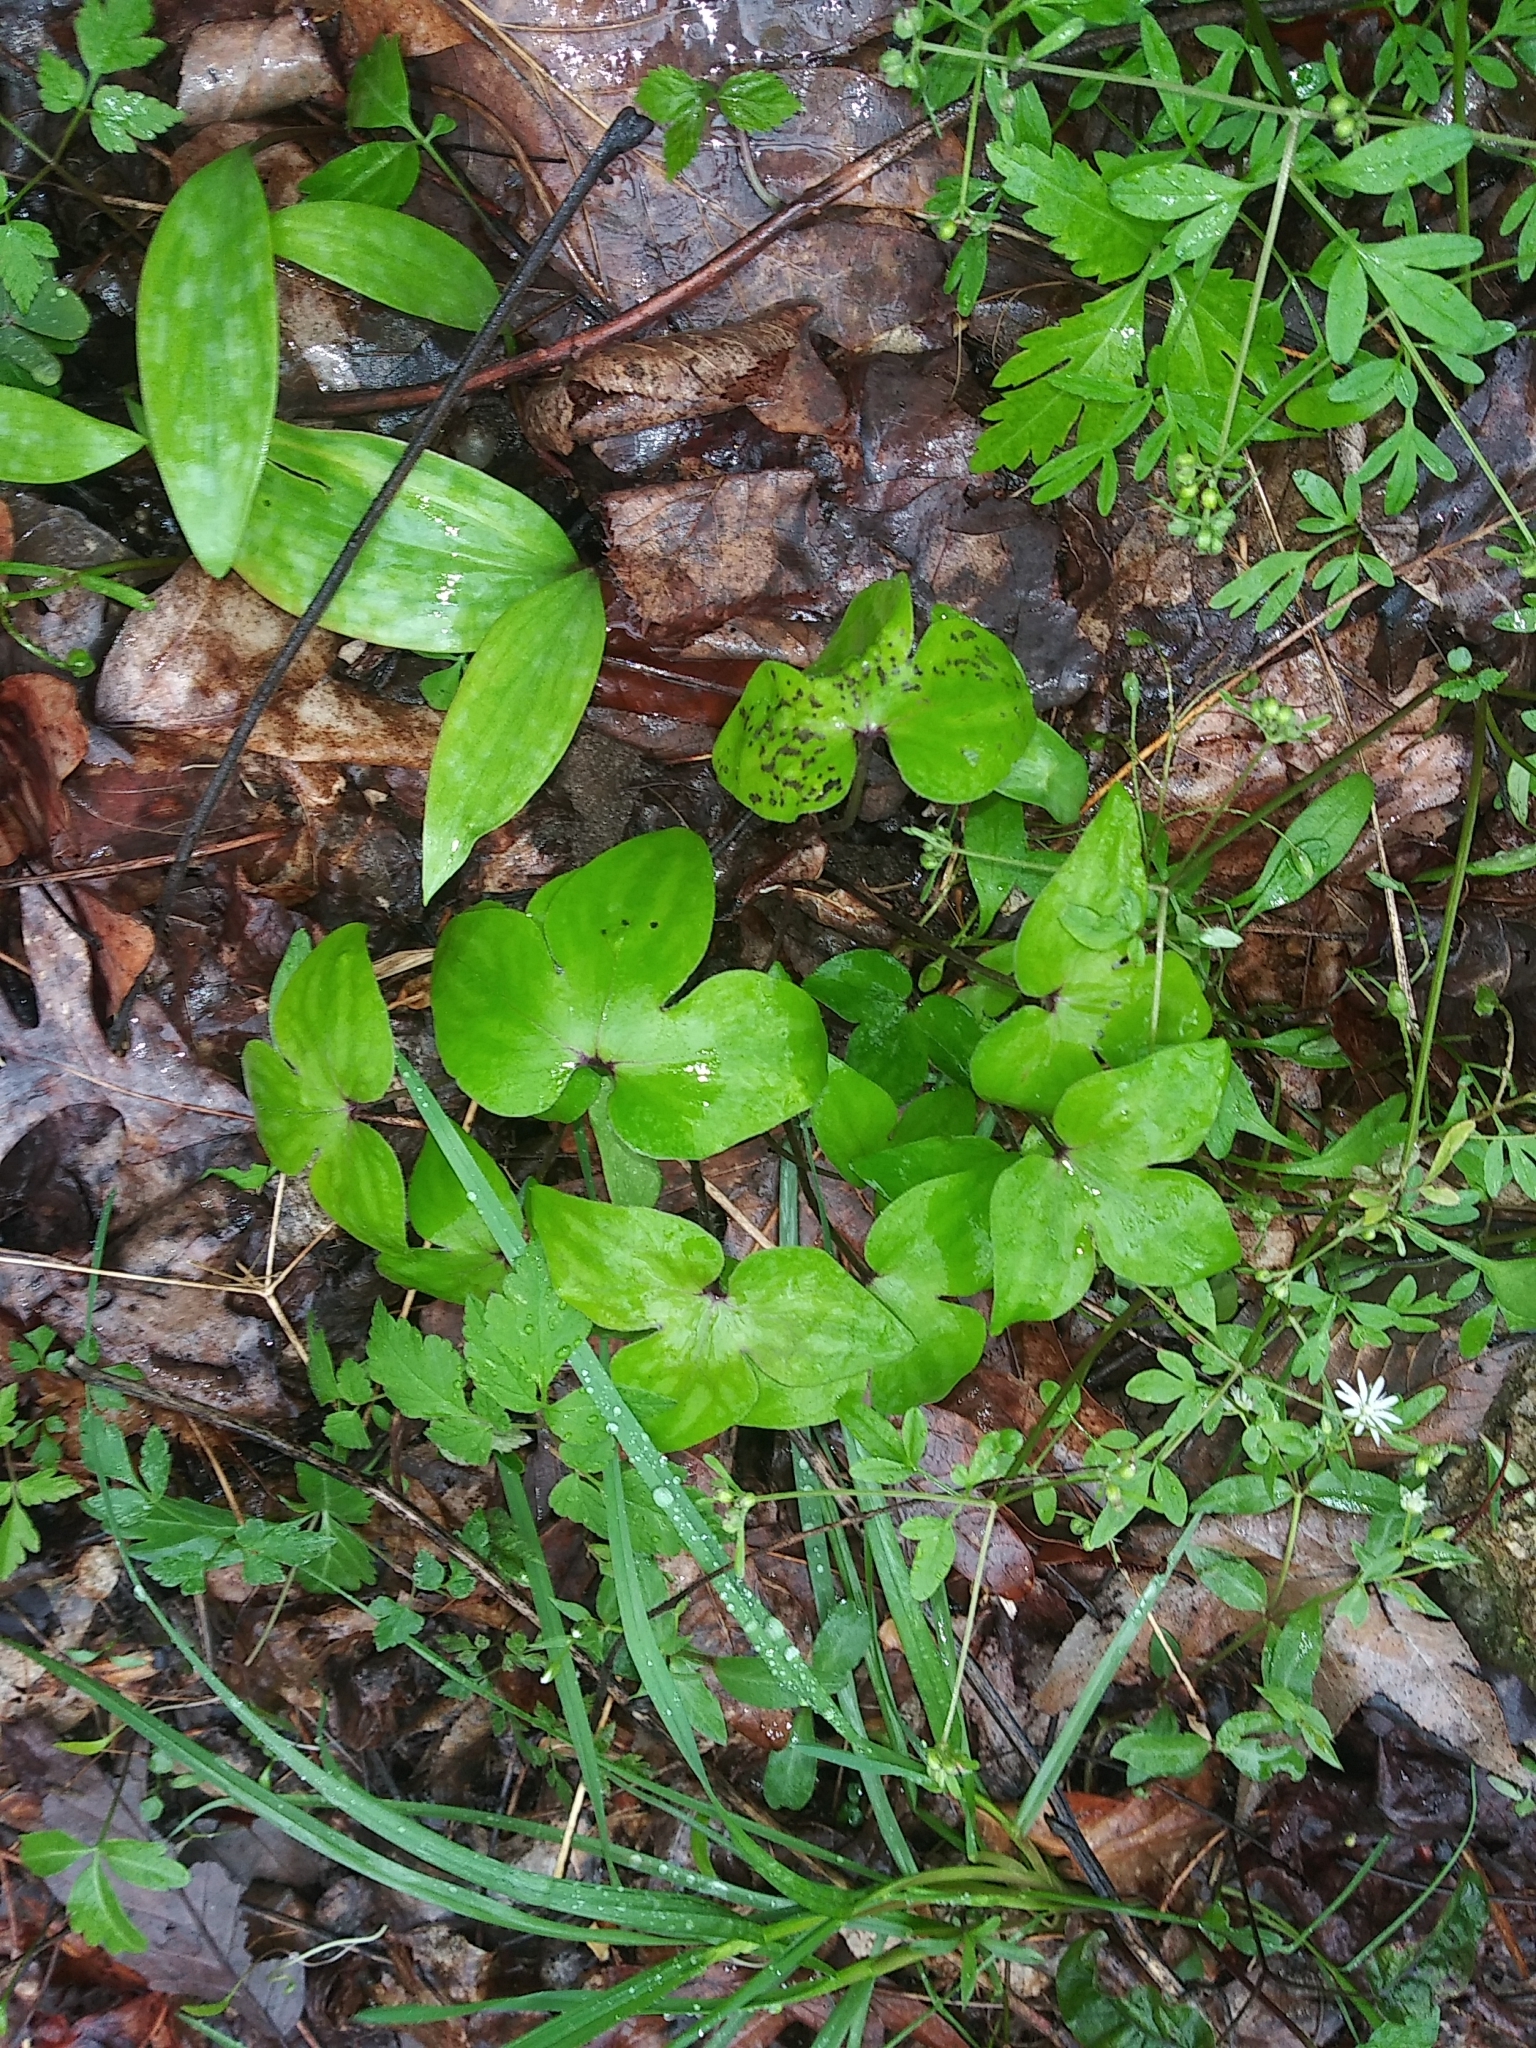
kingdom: Plantae
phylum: Tracheophyta
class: Magnoliopsida
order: Ranunculales
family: Ranunculaceae
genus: Hepatica
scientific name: Hepatica acutiloba
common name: Sharp-lobed hepatica
